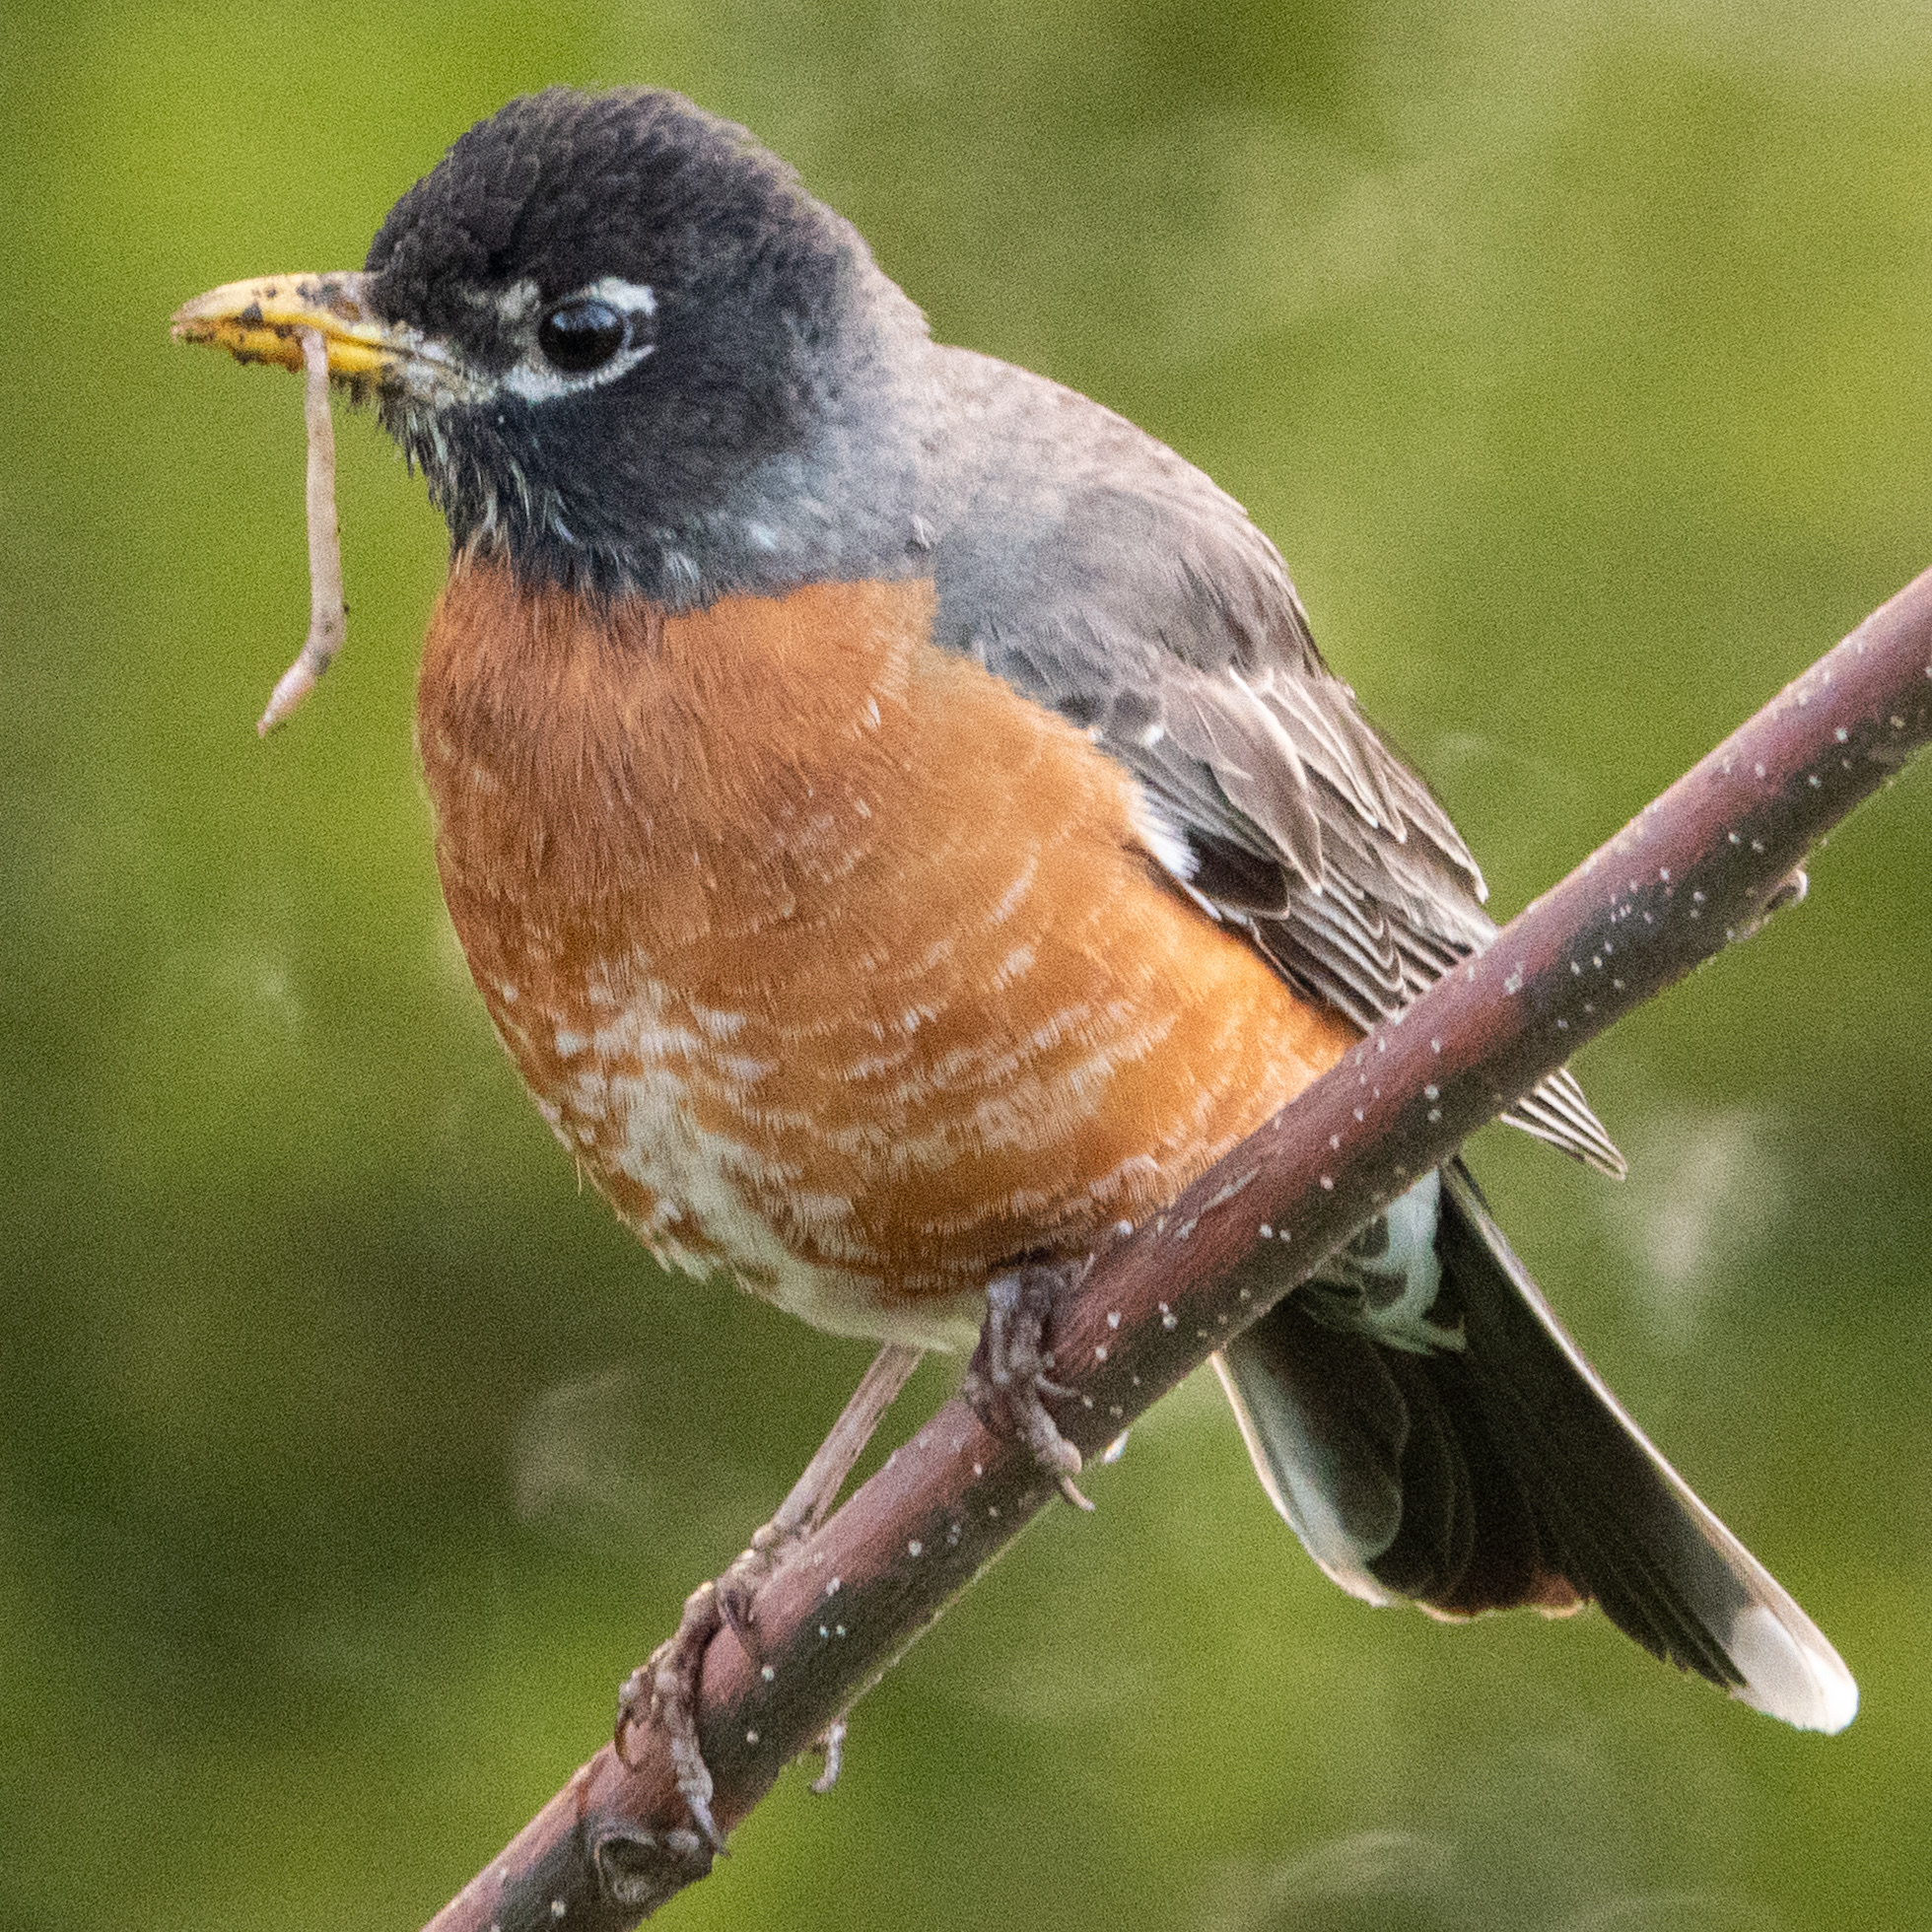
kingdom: Animalia
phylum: Chordata
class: Aves
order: Passeriformes
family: Turdidae
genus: Turdus
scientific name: Turdus migratorius
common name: American robin
